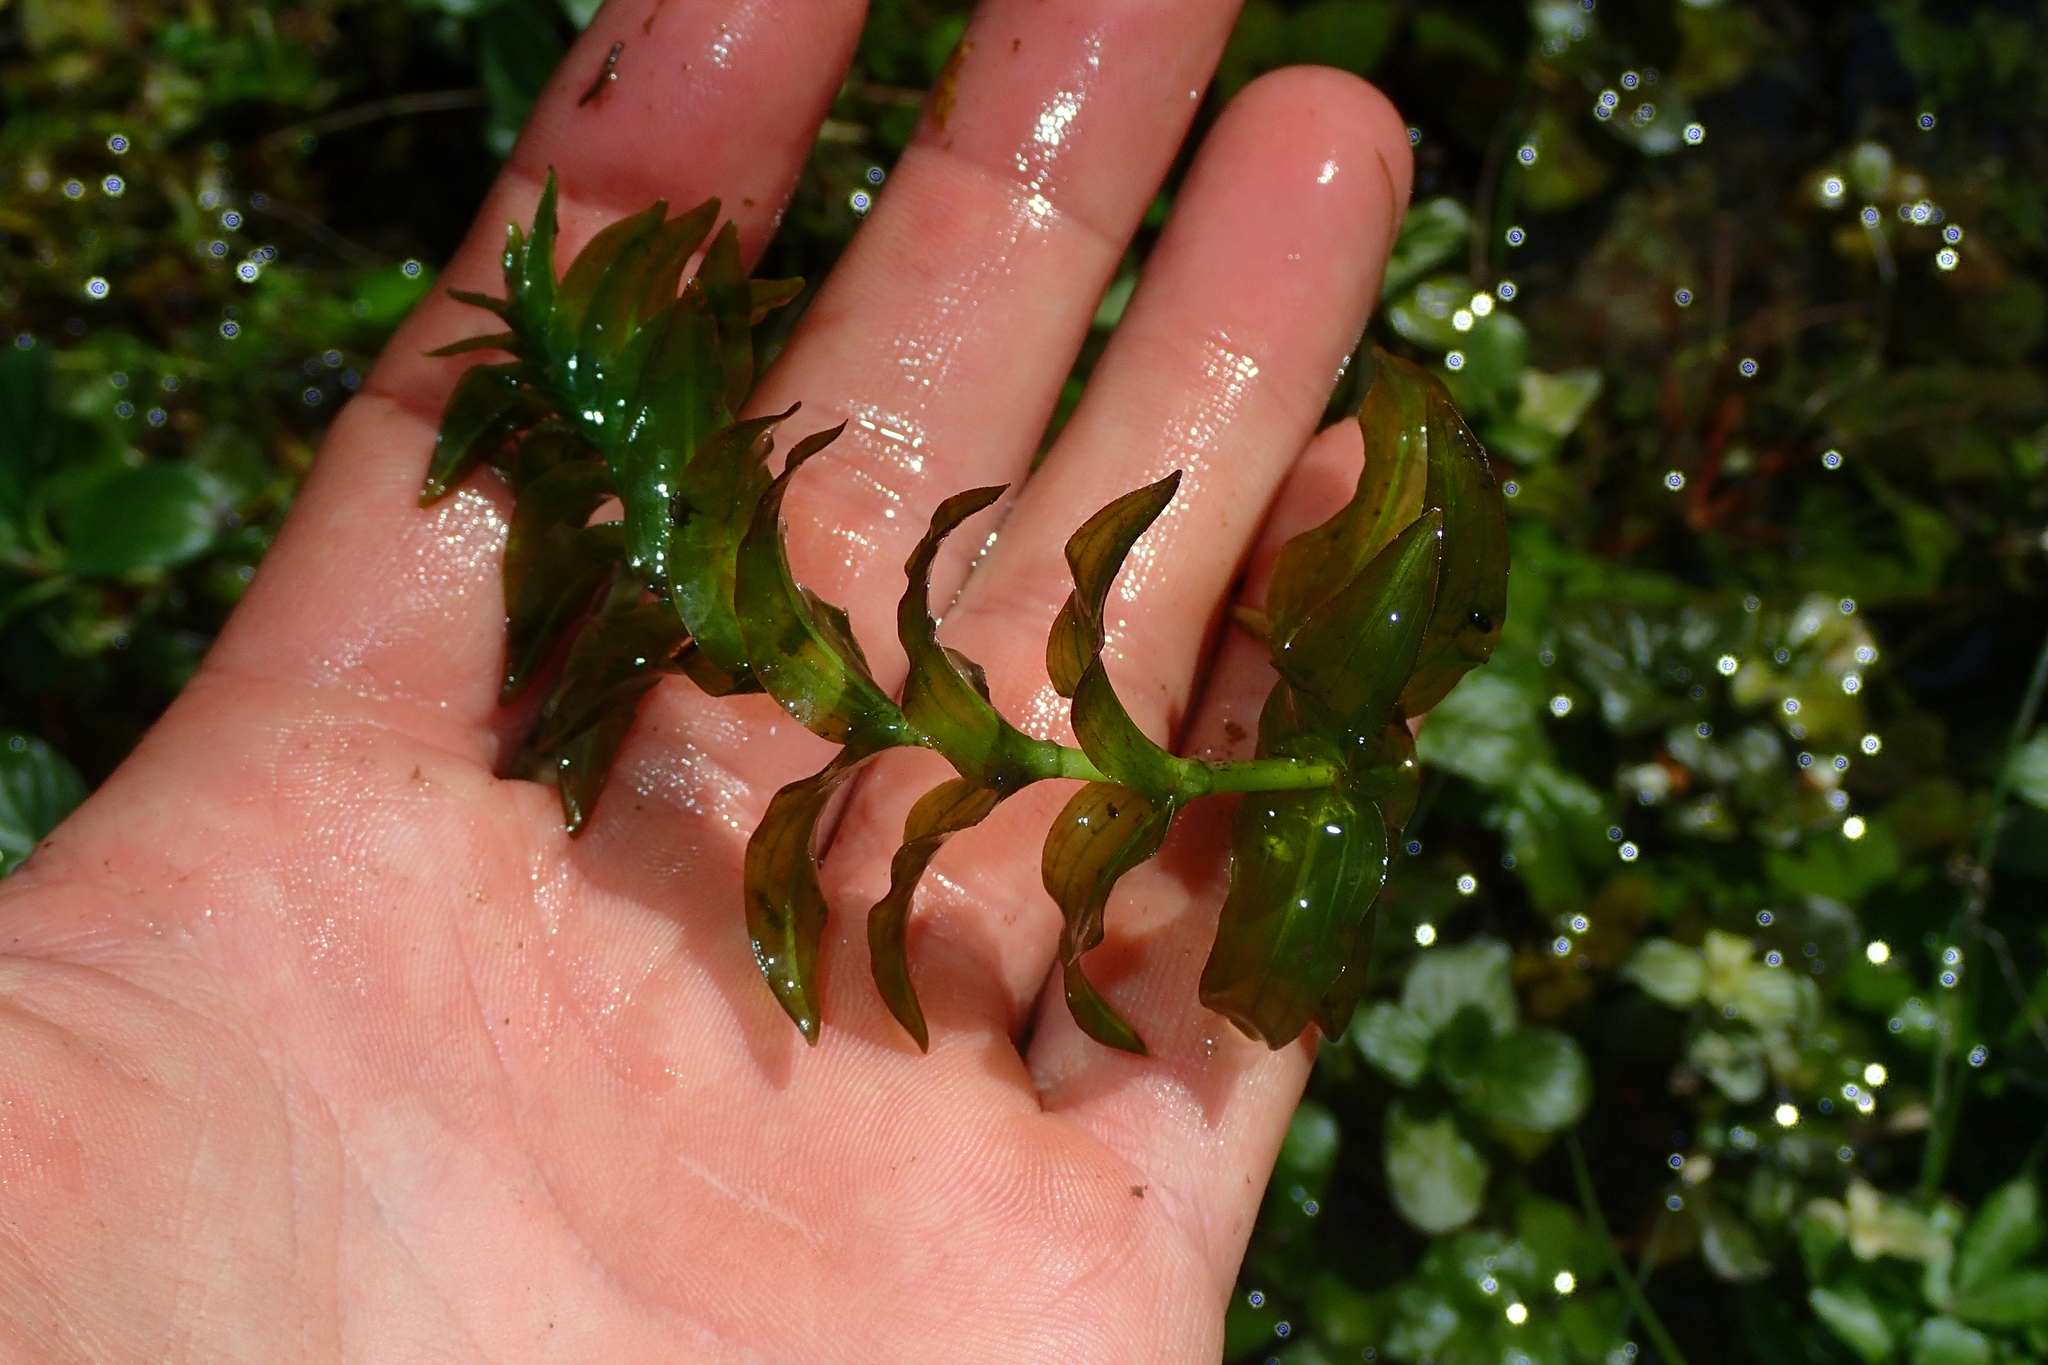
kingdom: Plantae
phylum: Tracheophyta
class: Liliopsida
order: Alismatales
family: Potamogetonaceae
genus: Groenlandia
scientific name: Groenlandia densa
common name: Opposite-leaved pondweed
